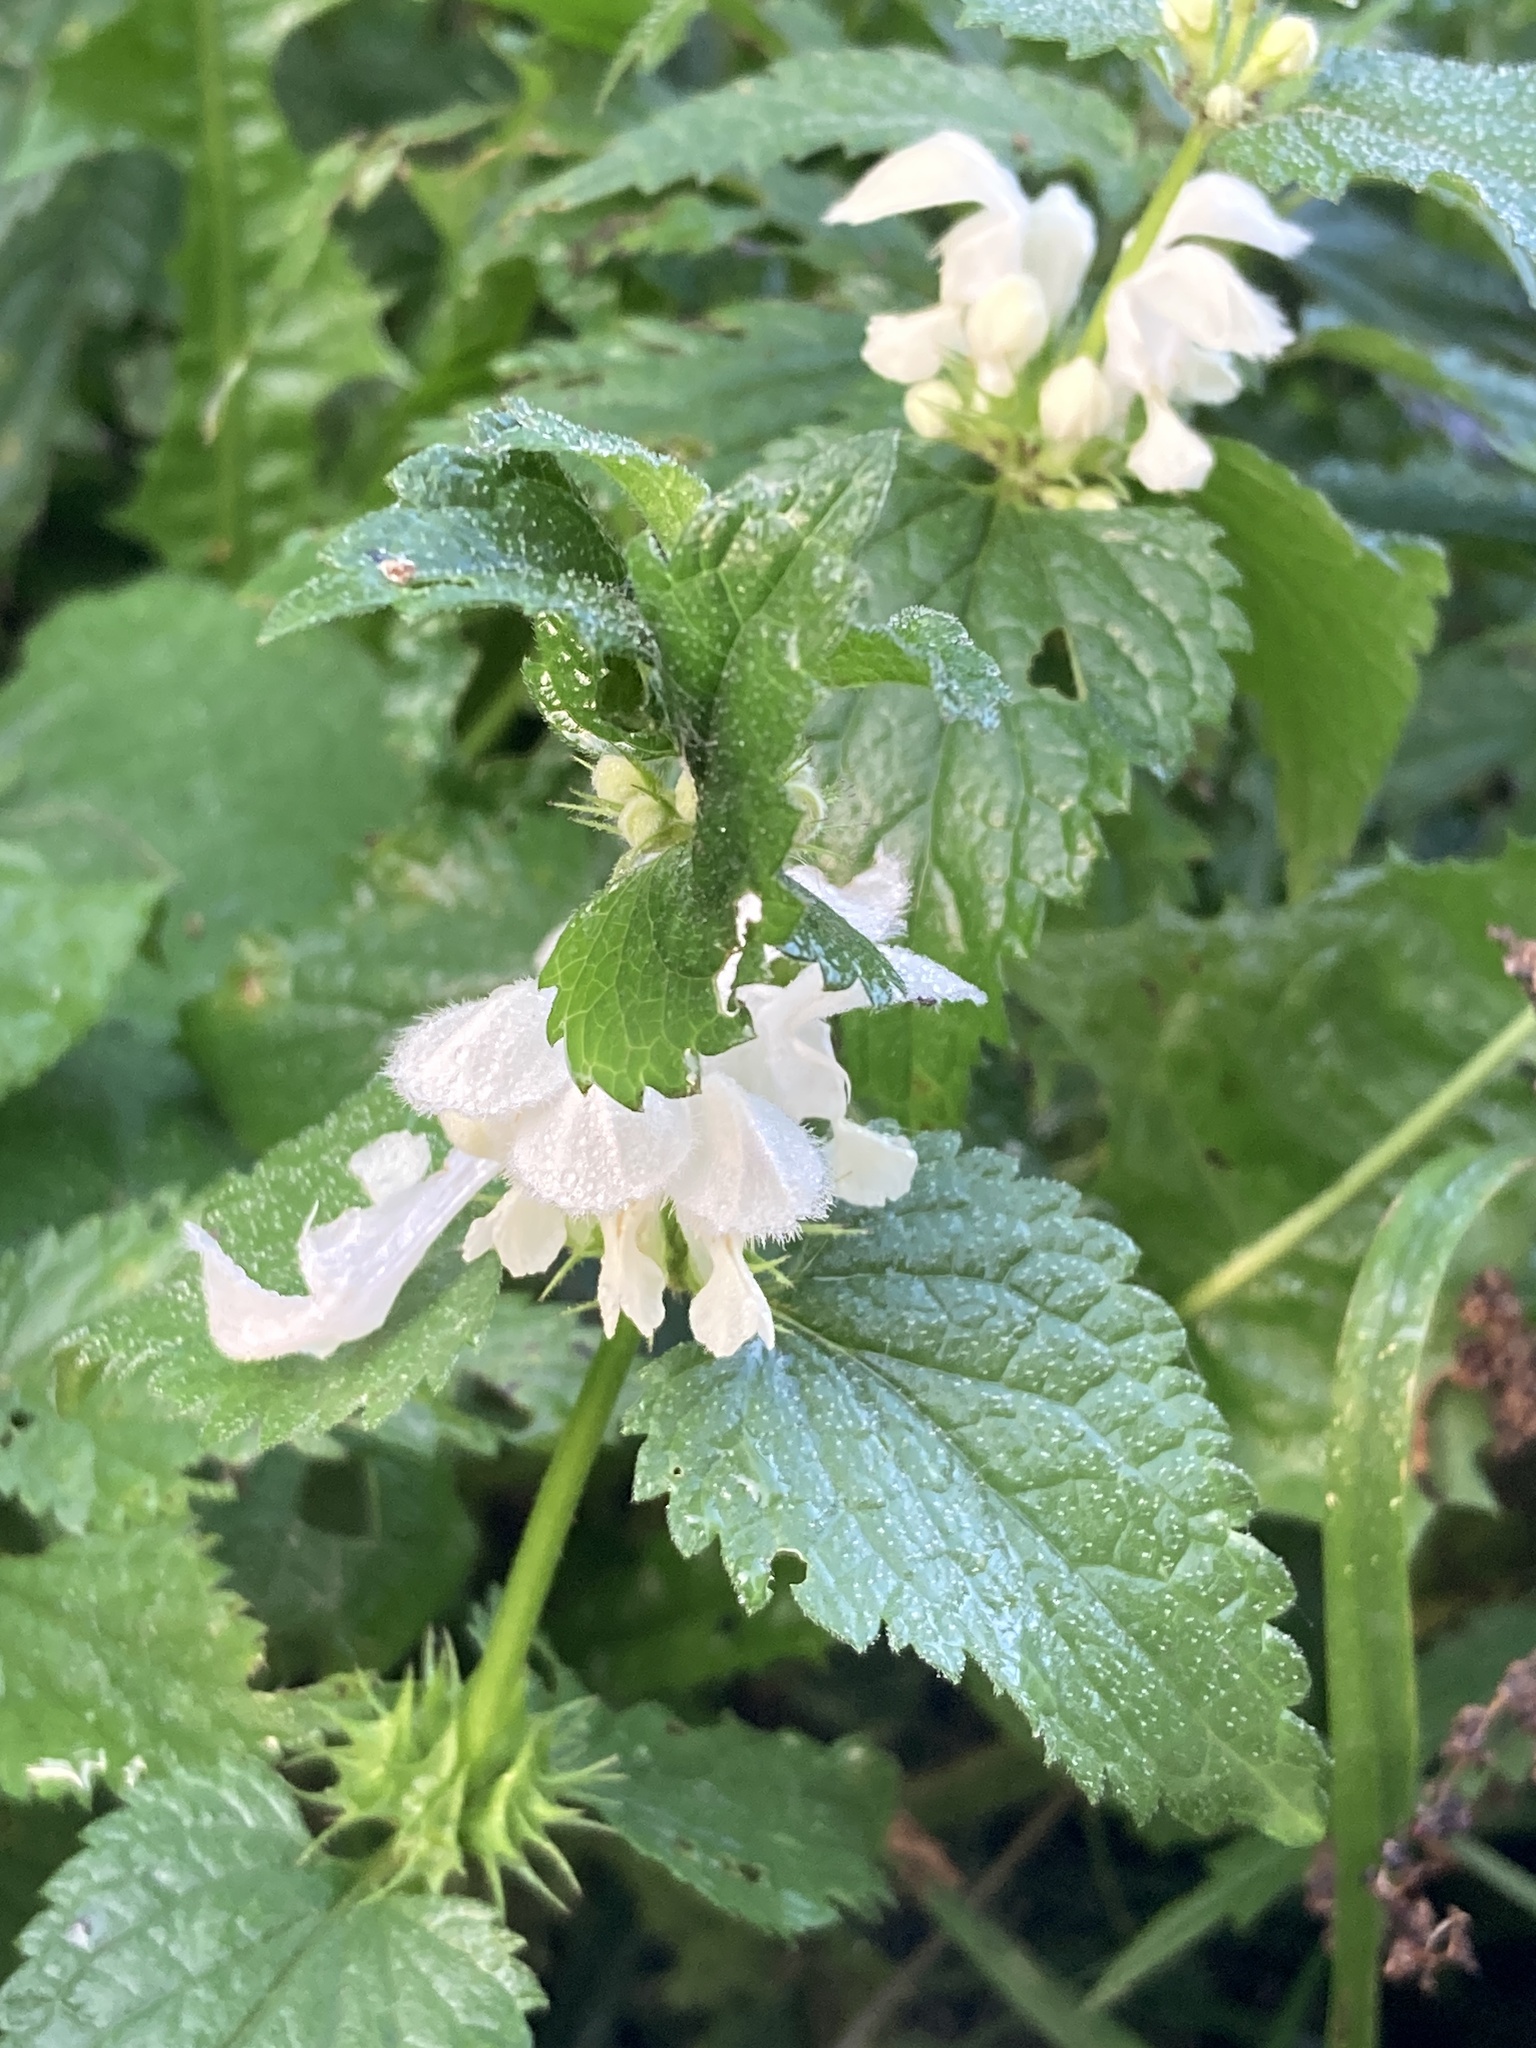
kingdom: Plantae
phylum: Tracheophyta
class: Magnoliopsida
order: Lamiales
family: Lamiaceae
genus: Lamium
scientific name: Lamium album
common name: White dead-nettle
